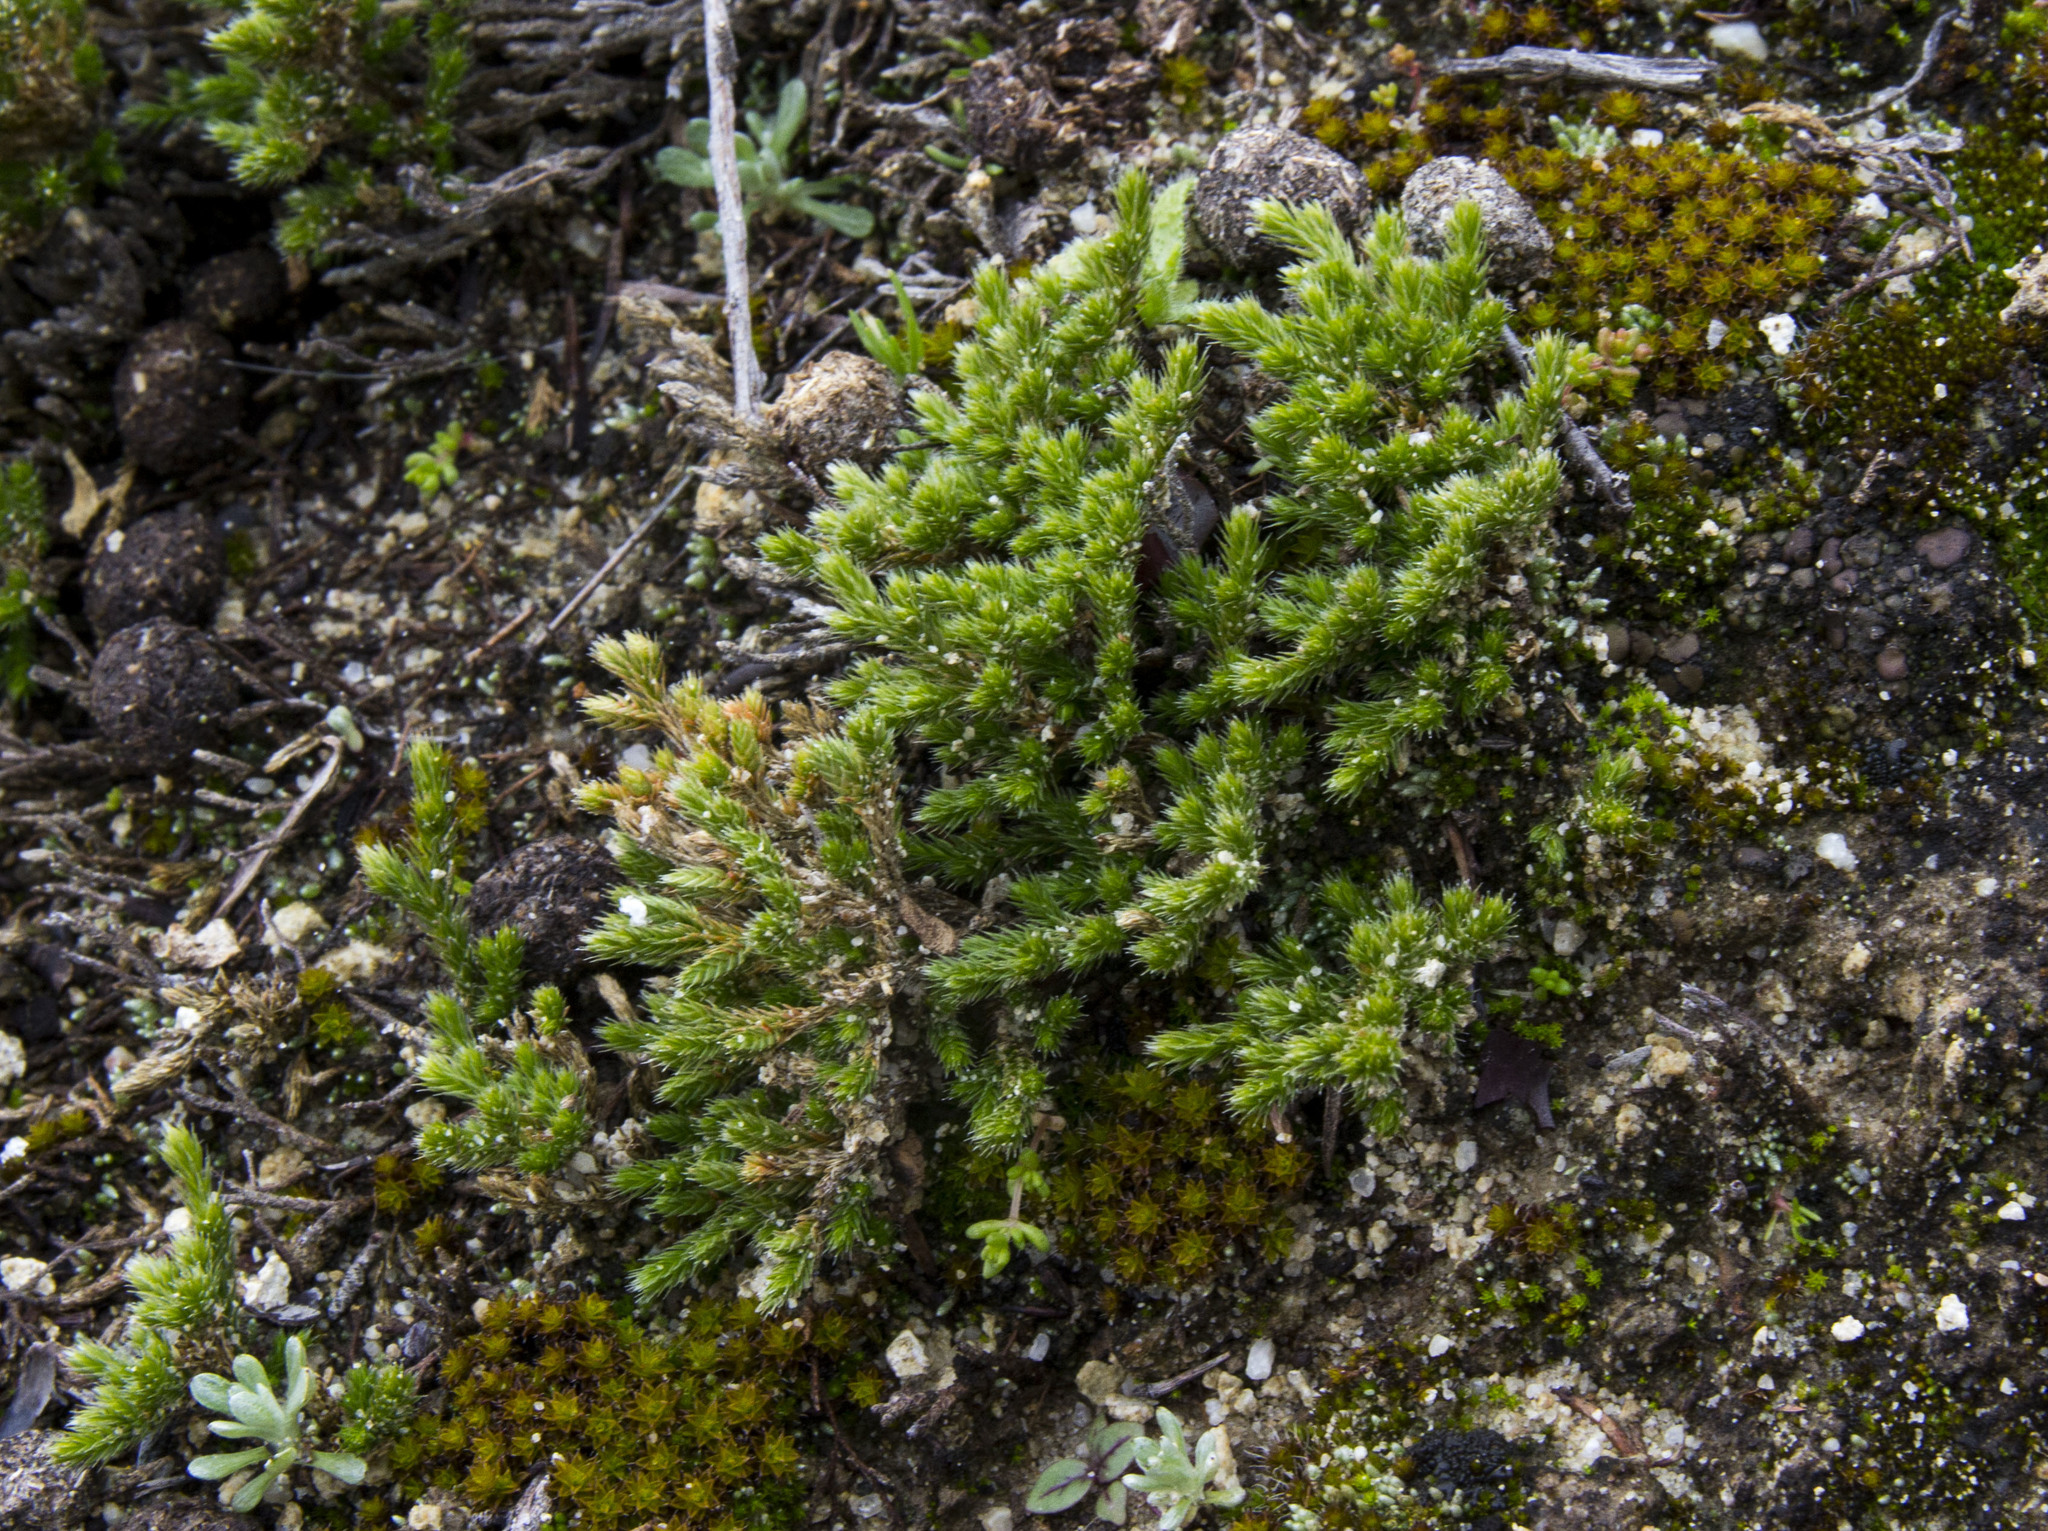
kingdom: Plantae
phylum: Tracheophyta
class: Lycopodiopsida
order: Selaginellales
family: Selaginellaceae
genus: Selaginella
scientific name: Selaginella bigelovii
